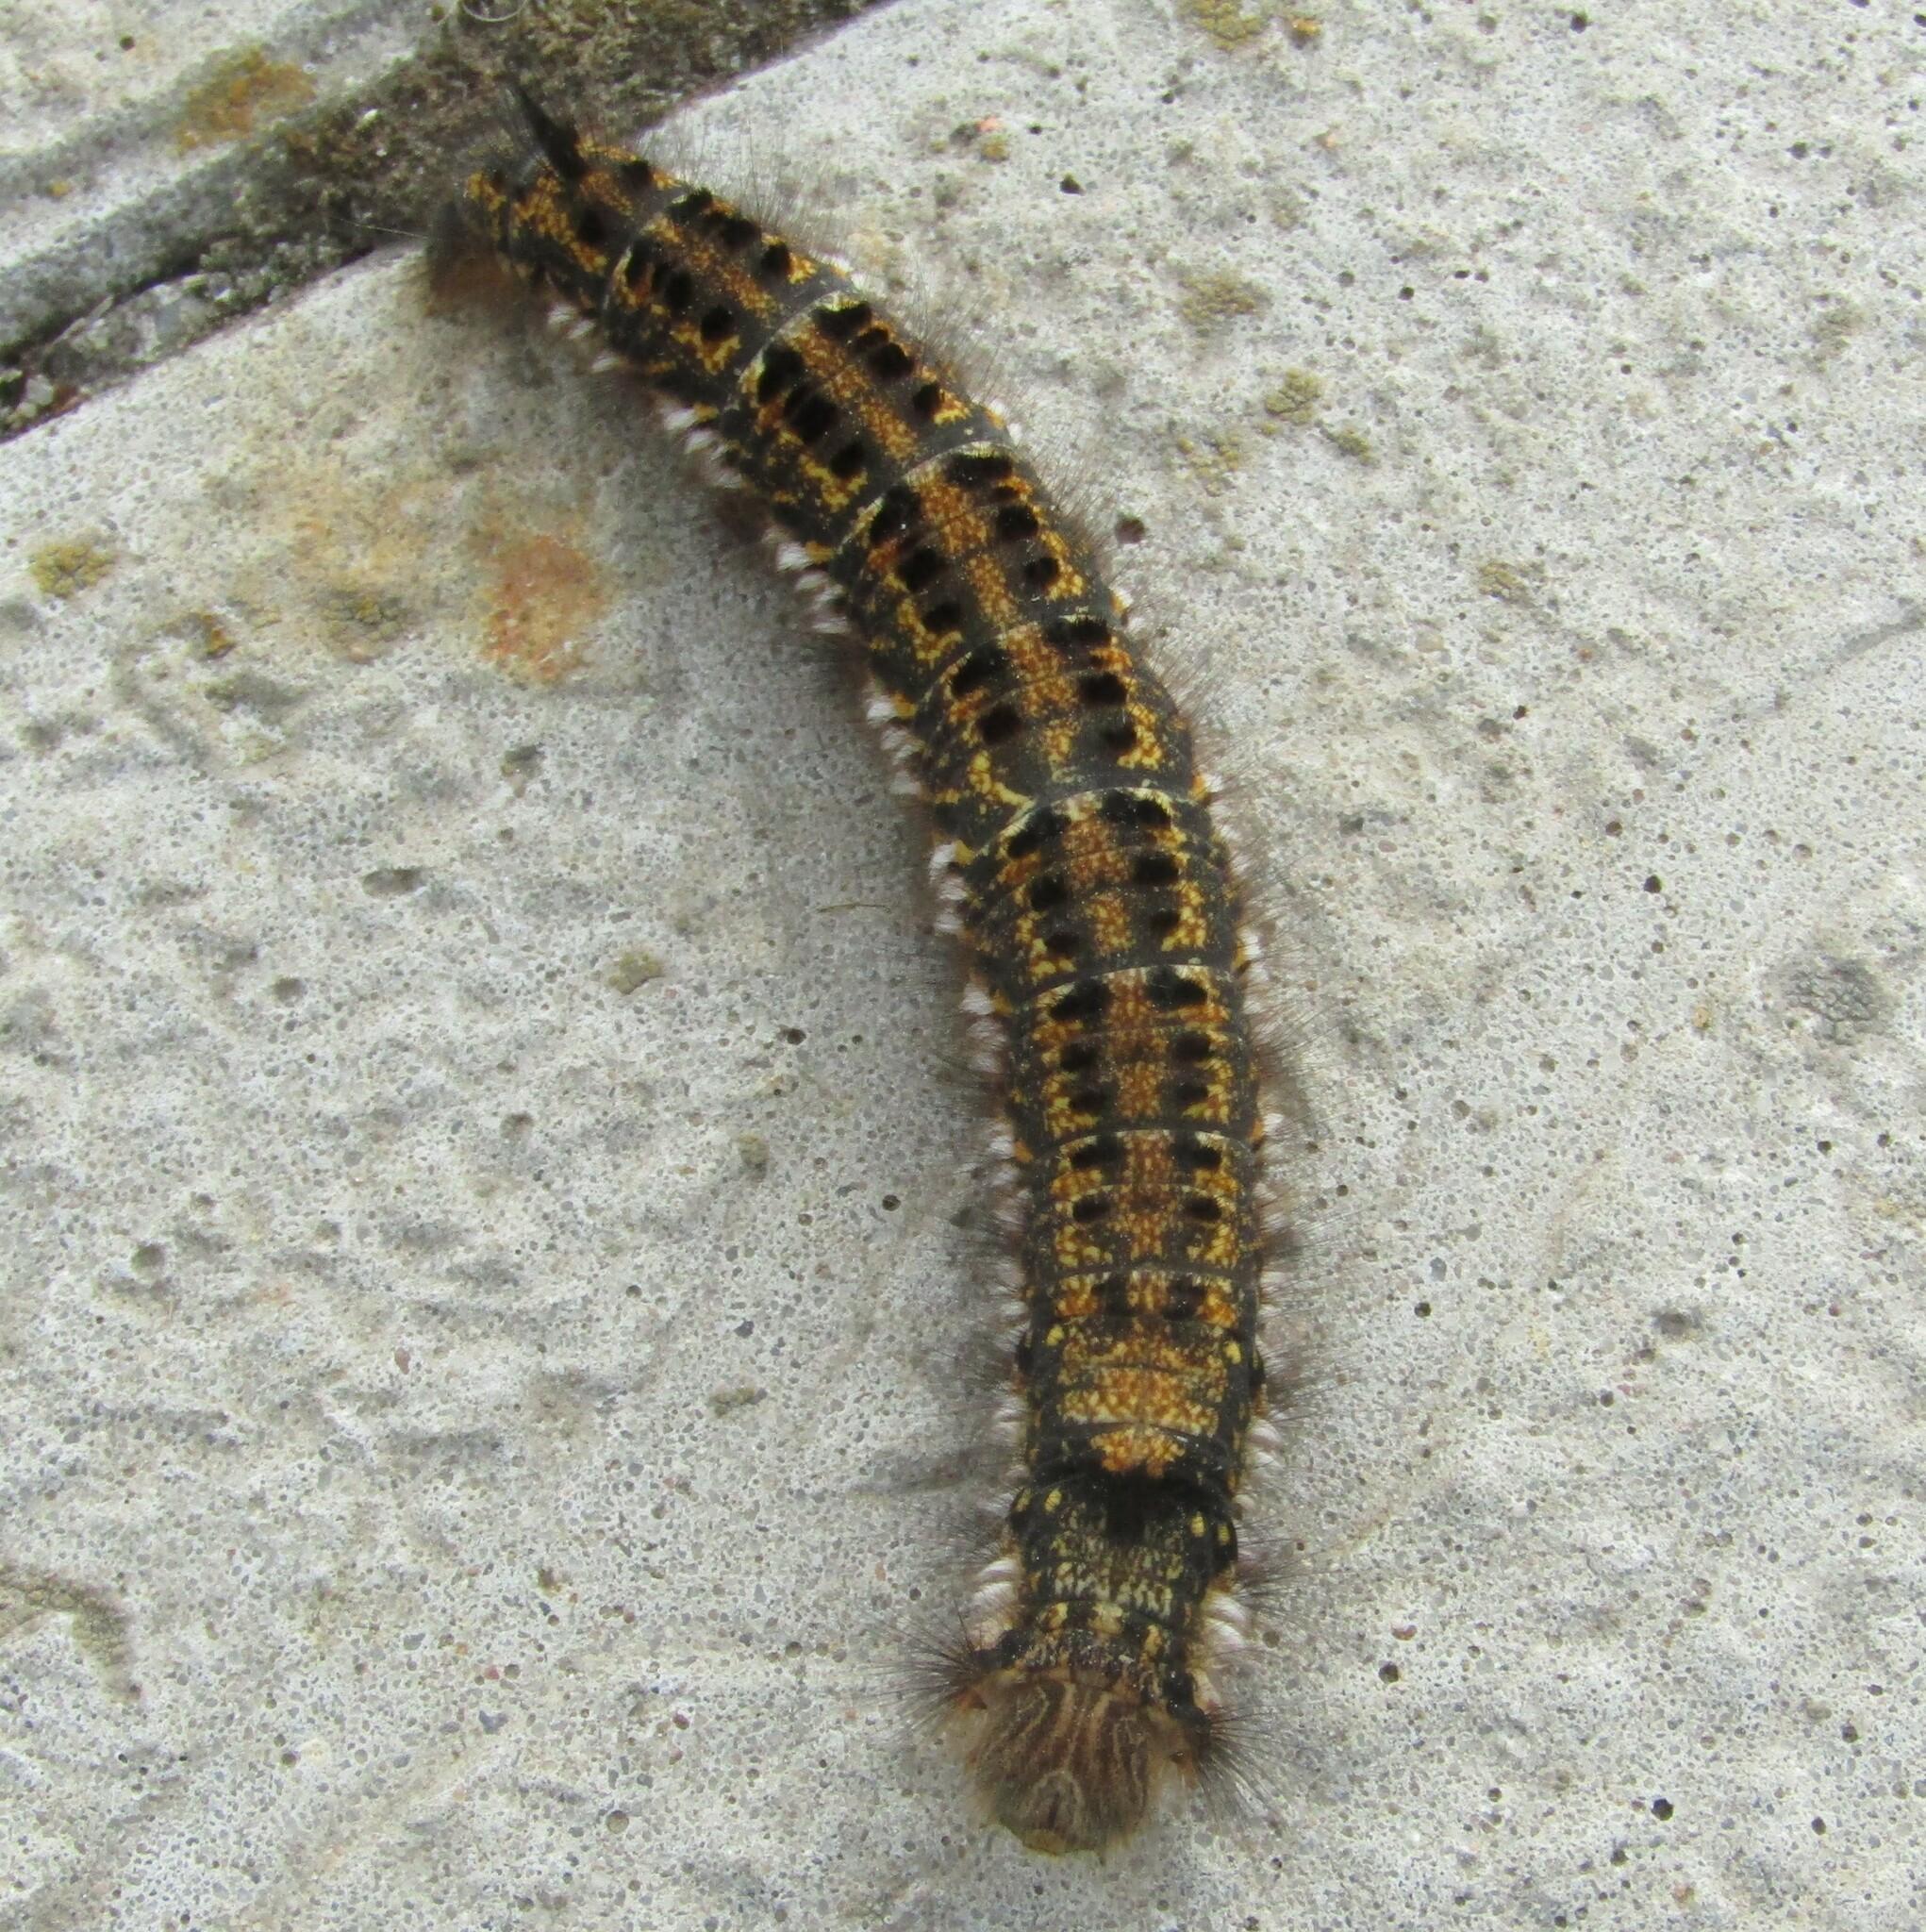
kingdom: Animalia
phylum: Arthropoda
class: Insecta
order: Lepidoptera
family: Lasiocampidae
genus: Euthrix
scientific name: Euthrix potatoria
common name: Drinker
